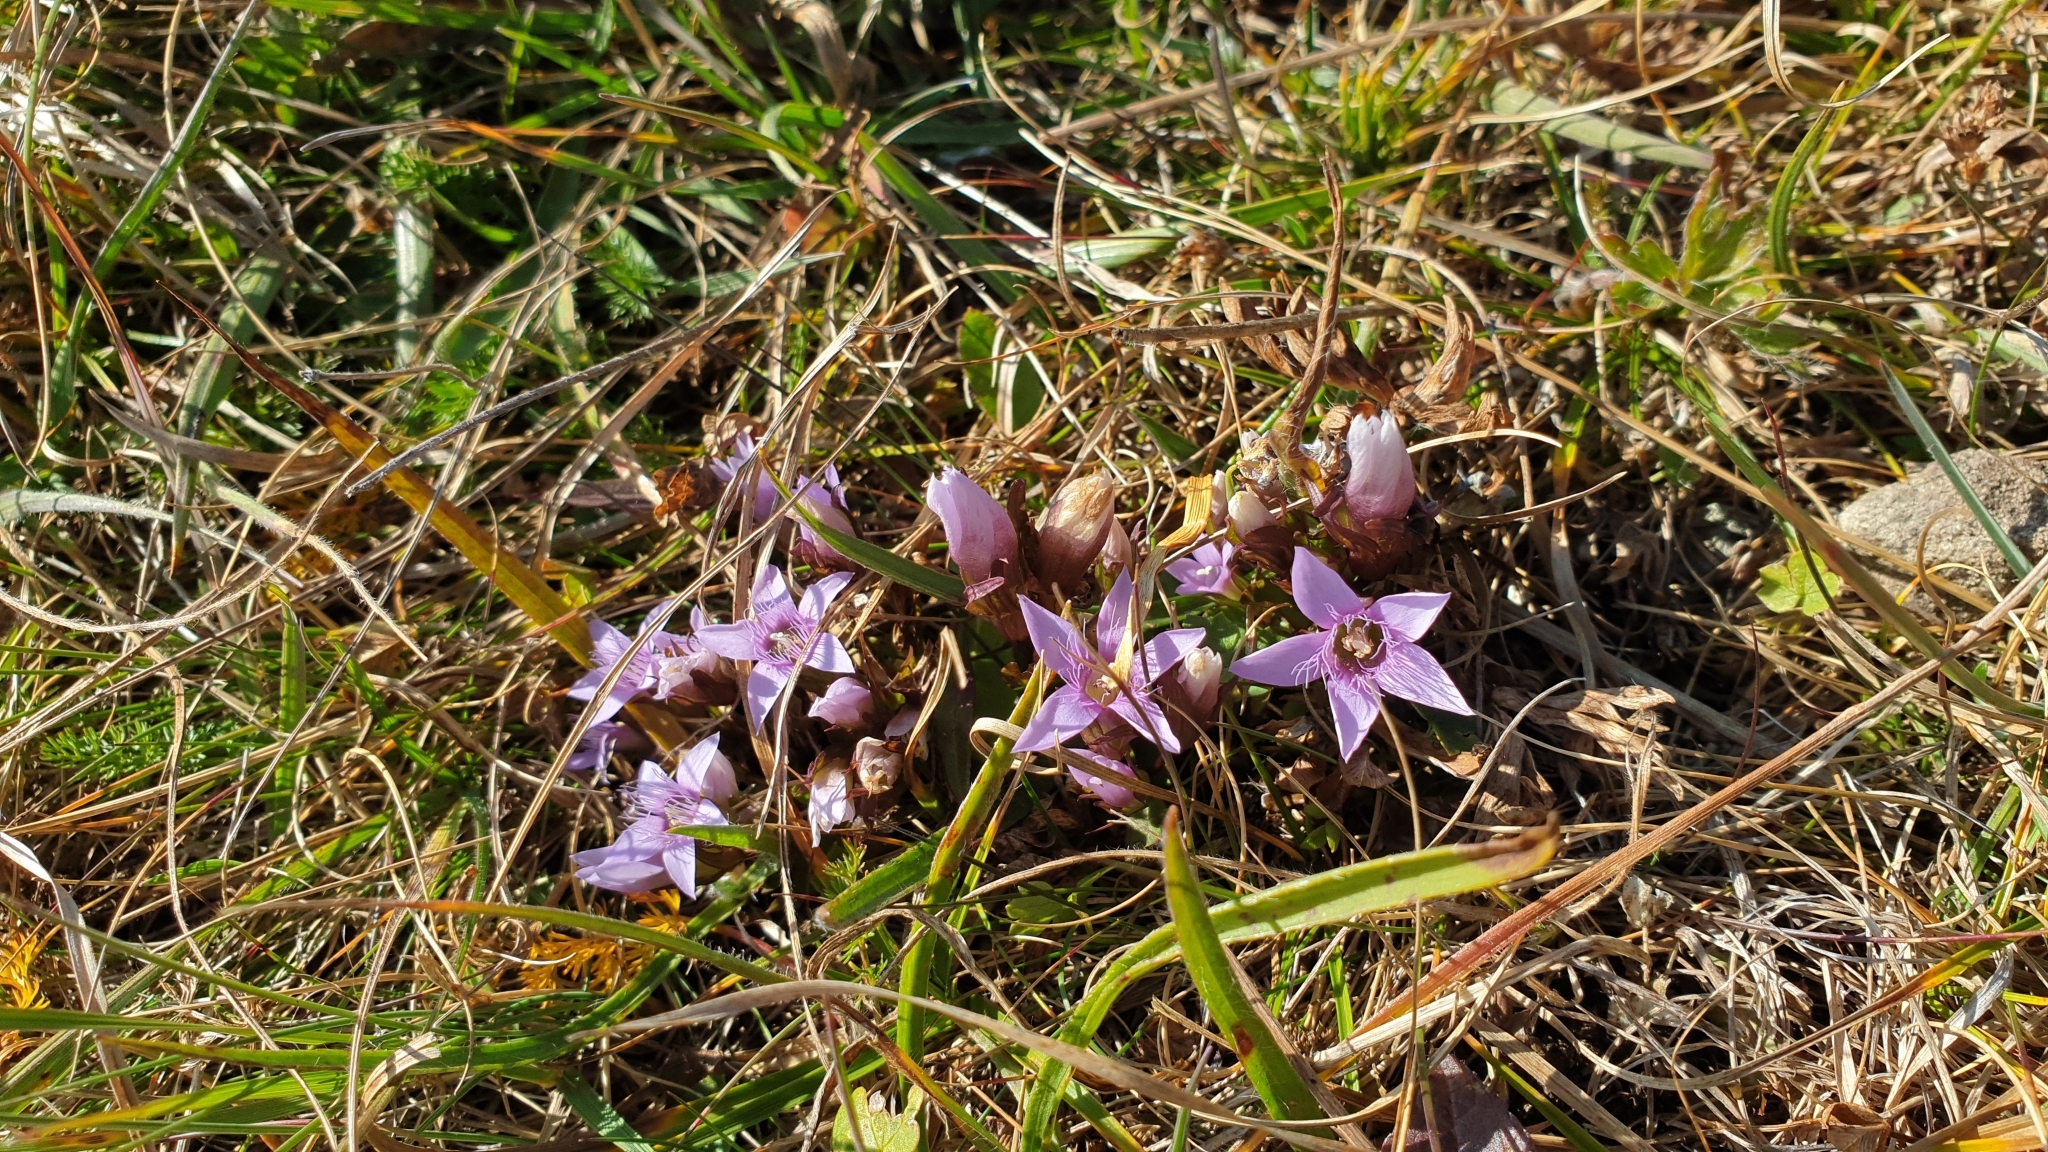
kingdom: Plantae
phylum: Tracheophyta
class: Magnoliopsida
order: Gentianales
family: Gentianaceae
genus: Gentianella
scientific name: Gentianella biebersteinii
